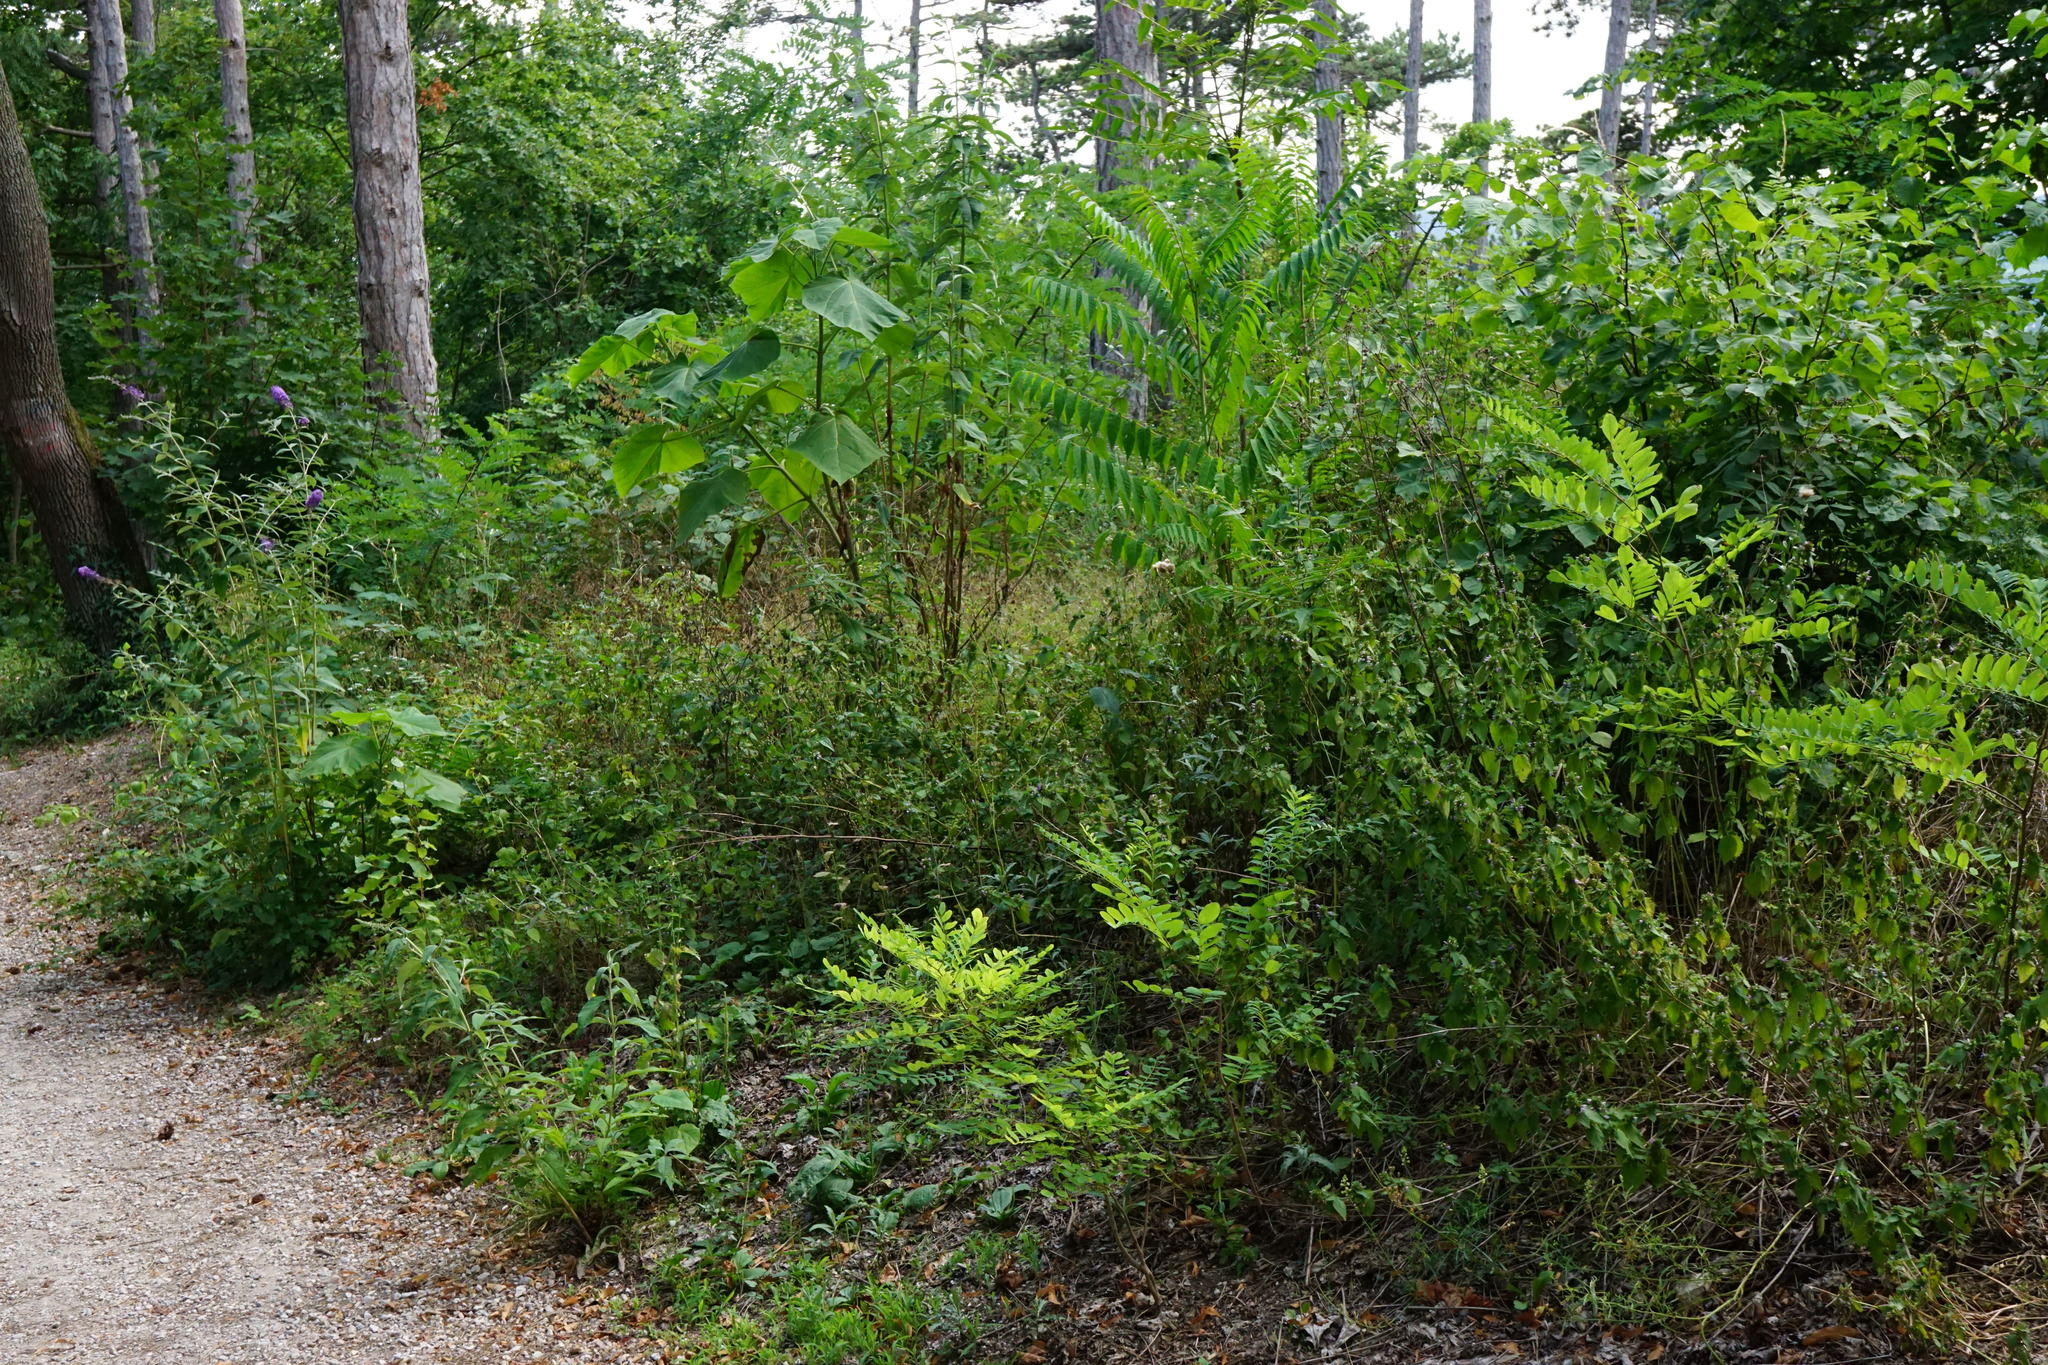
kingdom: Plantae
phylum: Tracheophyta
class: Magnoliopsida
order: Fabales
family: Fabaceae
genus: Robinia
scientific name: Robinia pseudoacacia
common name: Black locust
